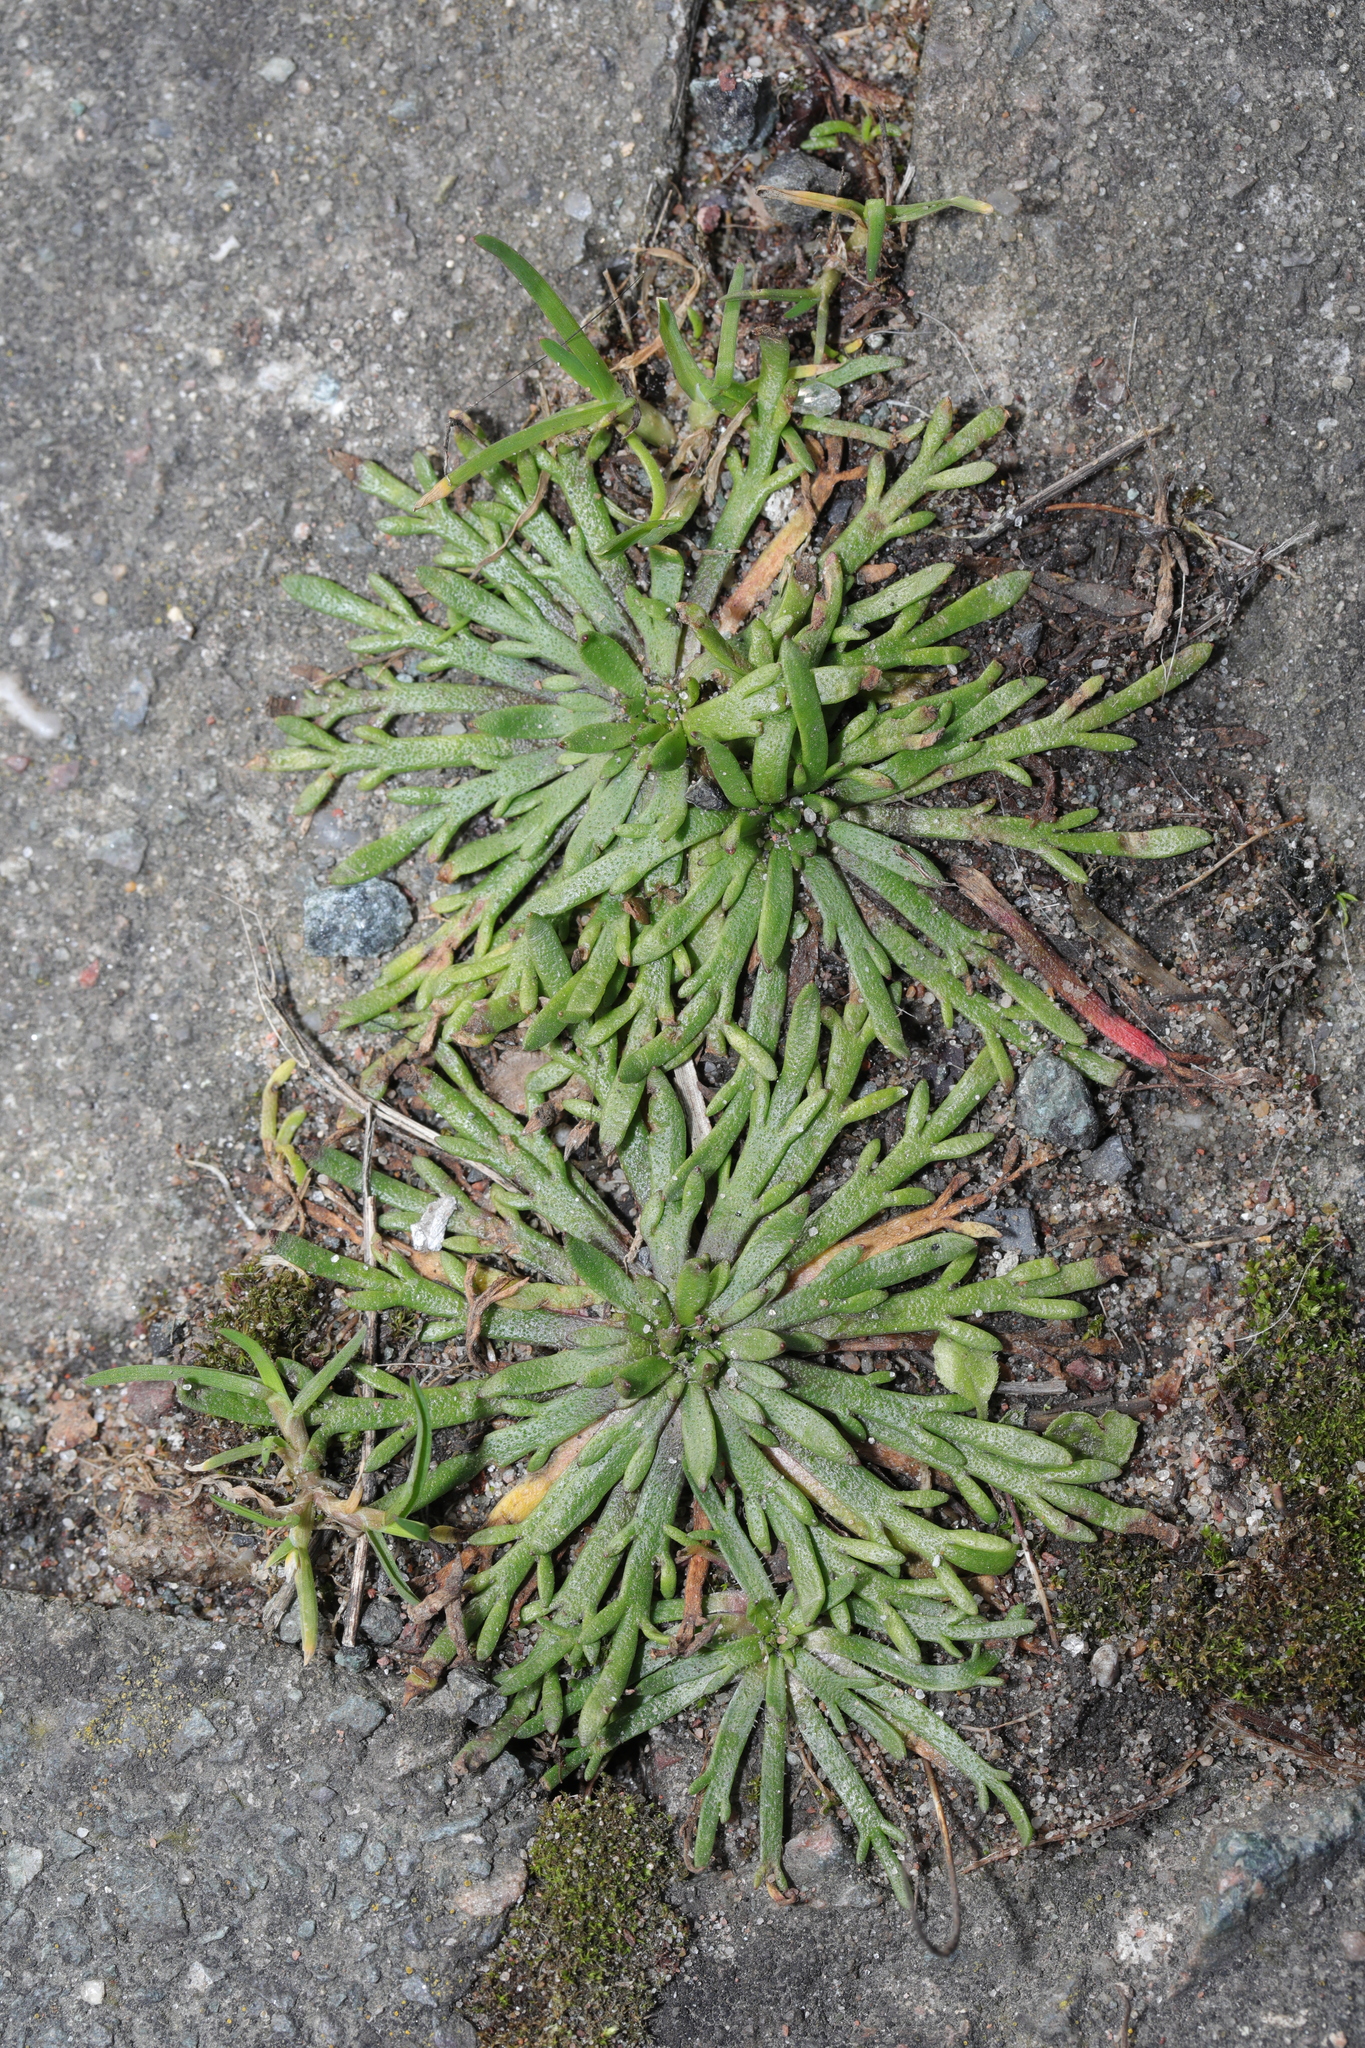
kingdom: Plantae
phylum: Tracheophyta
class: Magnoliopsida
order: Lamiales
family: Plantaginaceae
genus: Plantago
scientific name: Plantago coronopus
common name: Buck's-horn plantain
